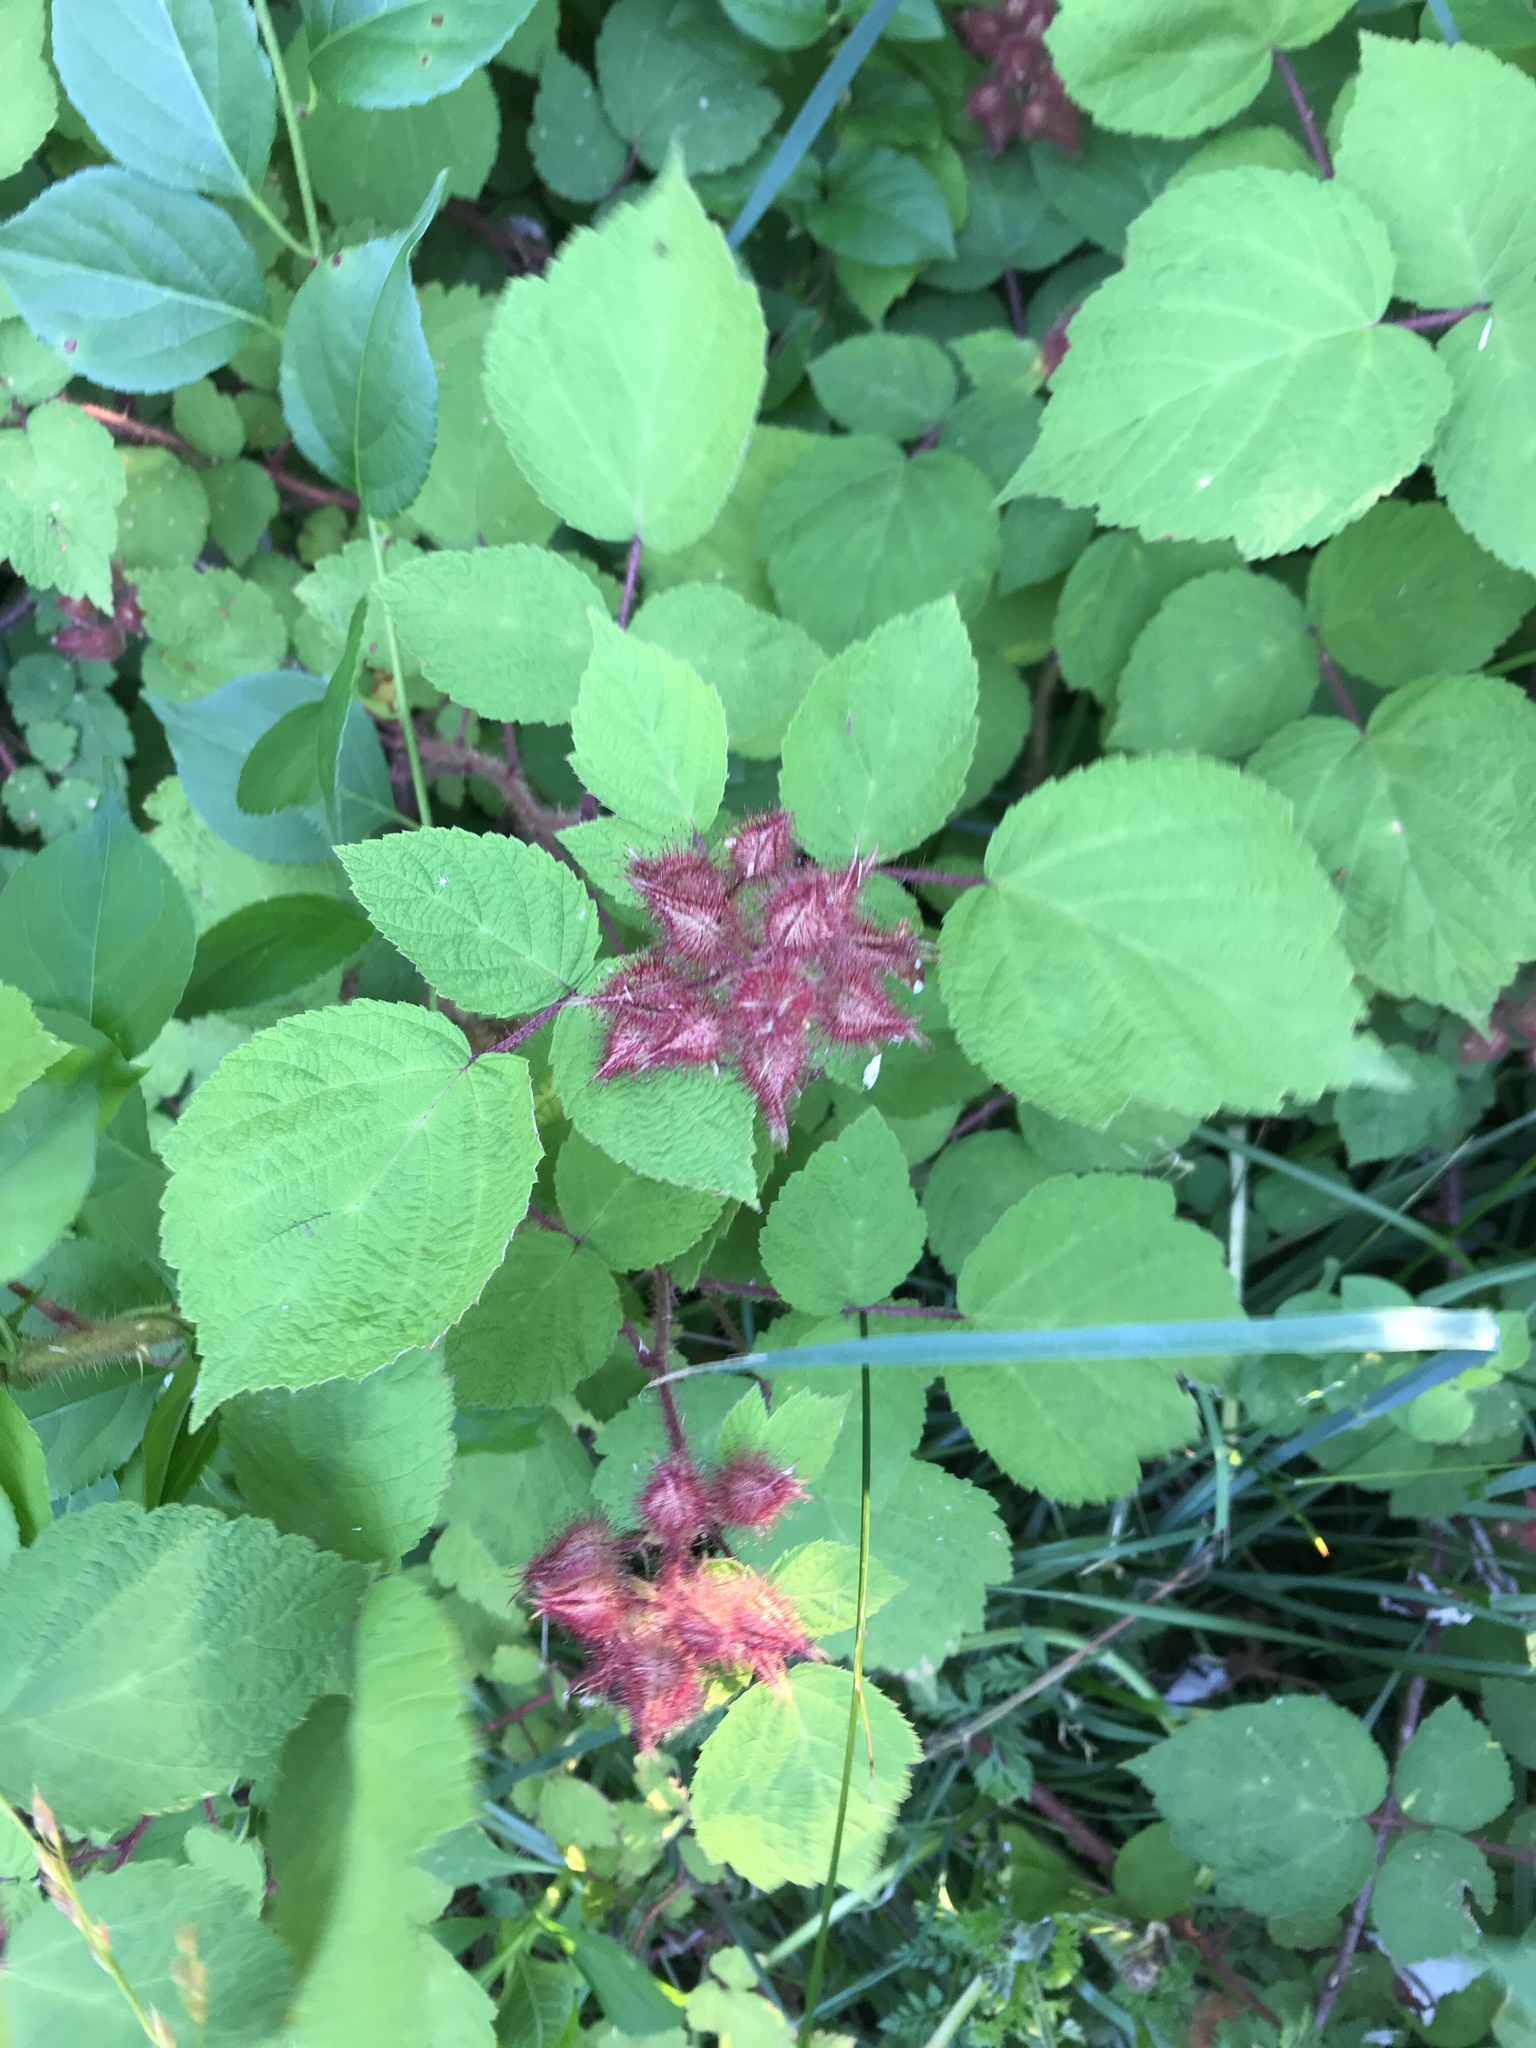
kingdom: Plantae
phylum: Tracheophyta
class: Magnoliopsida
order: Rosales
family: Rosaceae
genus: Rubus
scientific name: Rubus phoenicolasius
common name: Japanese wineberry
